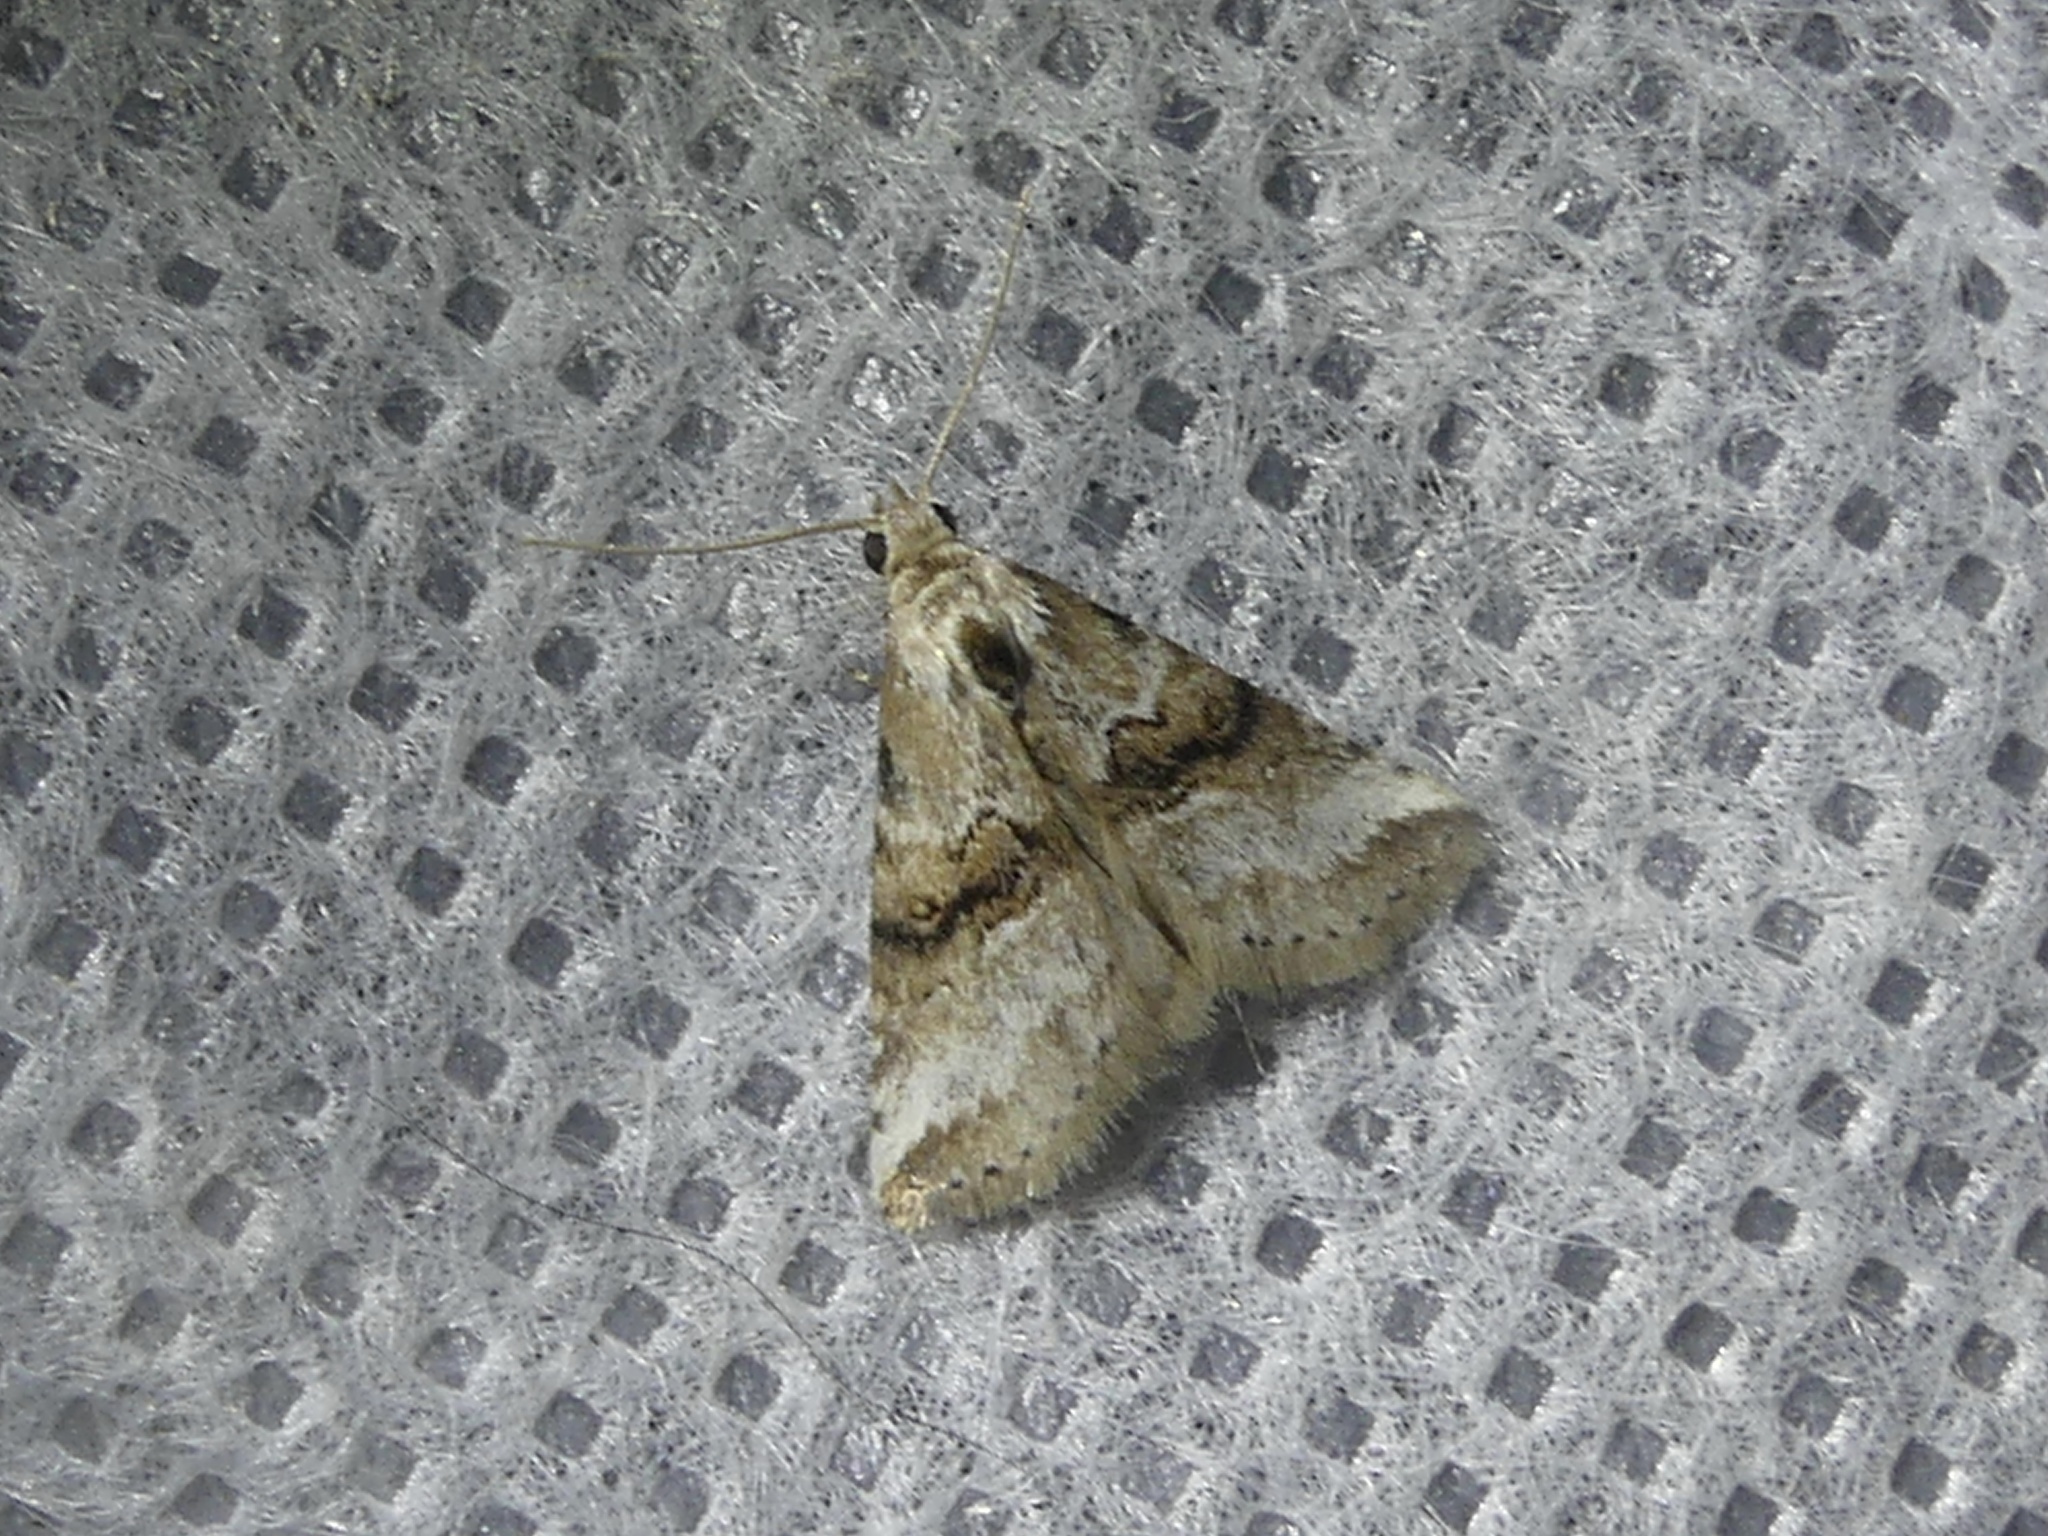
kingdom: Animalia
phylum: Arthropoda
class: Insecta
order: Lepidoptera
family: Erebidae
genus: Zebeeba
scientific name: Zebeeba falsalis
